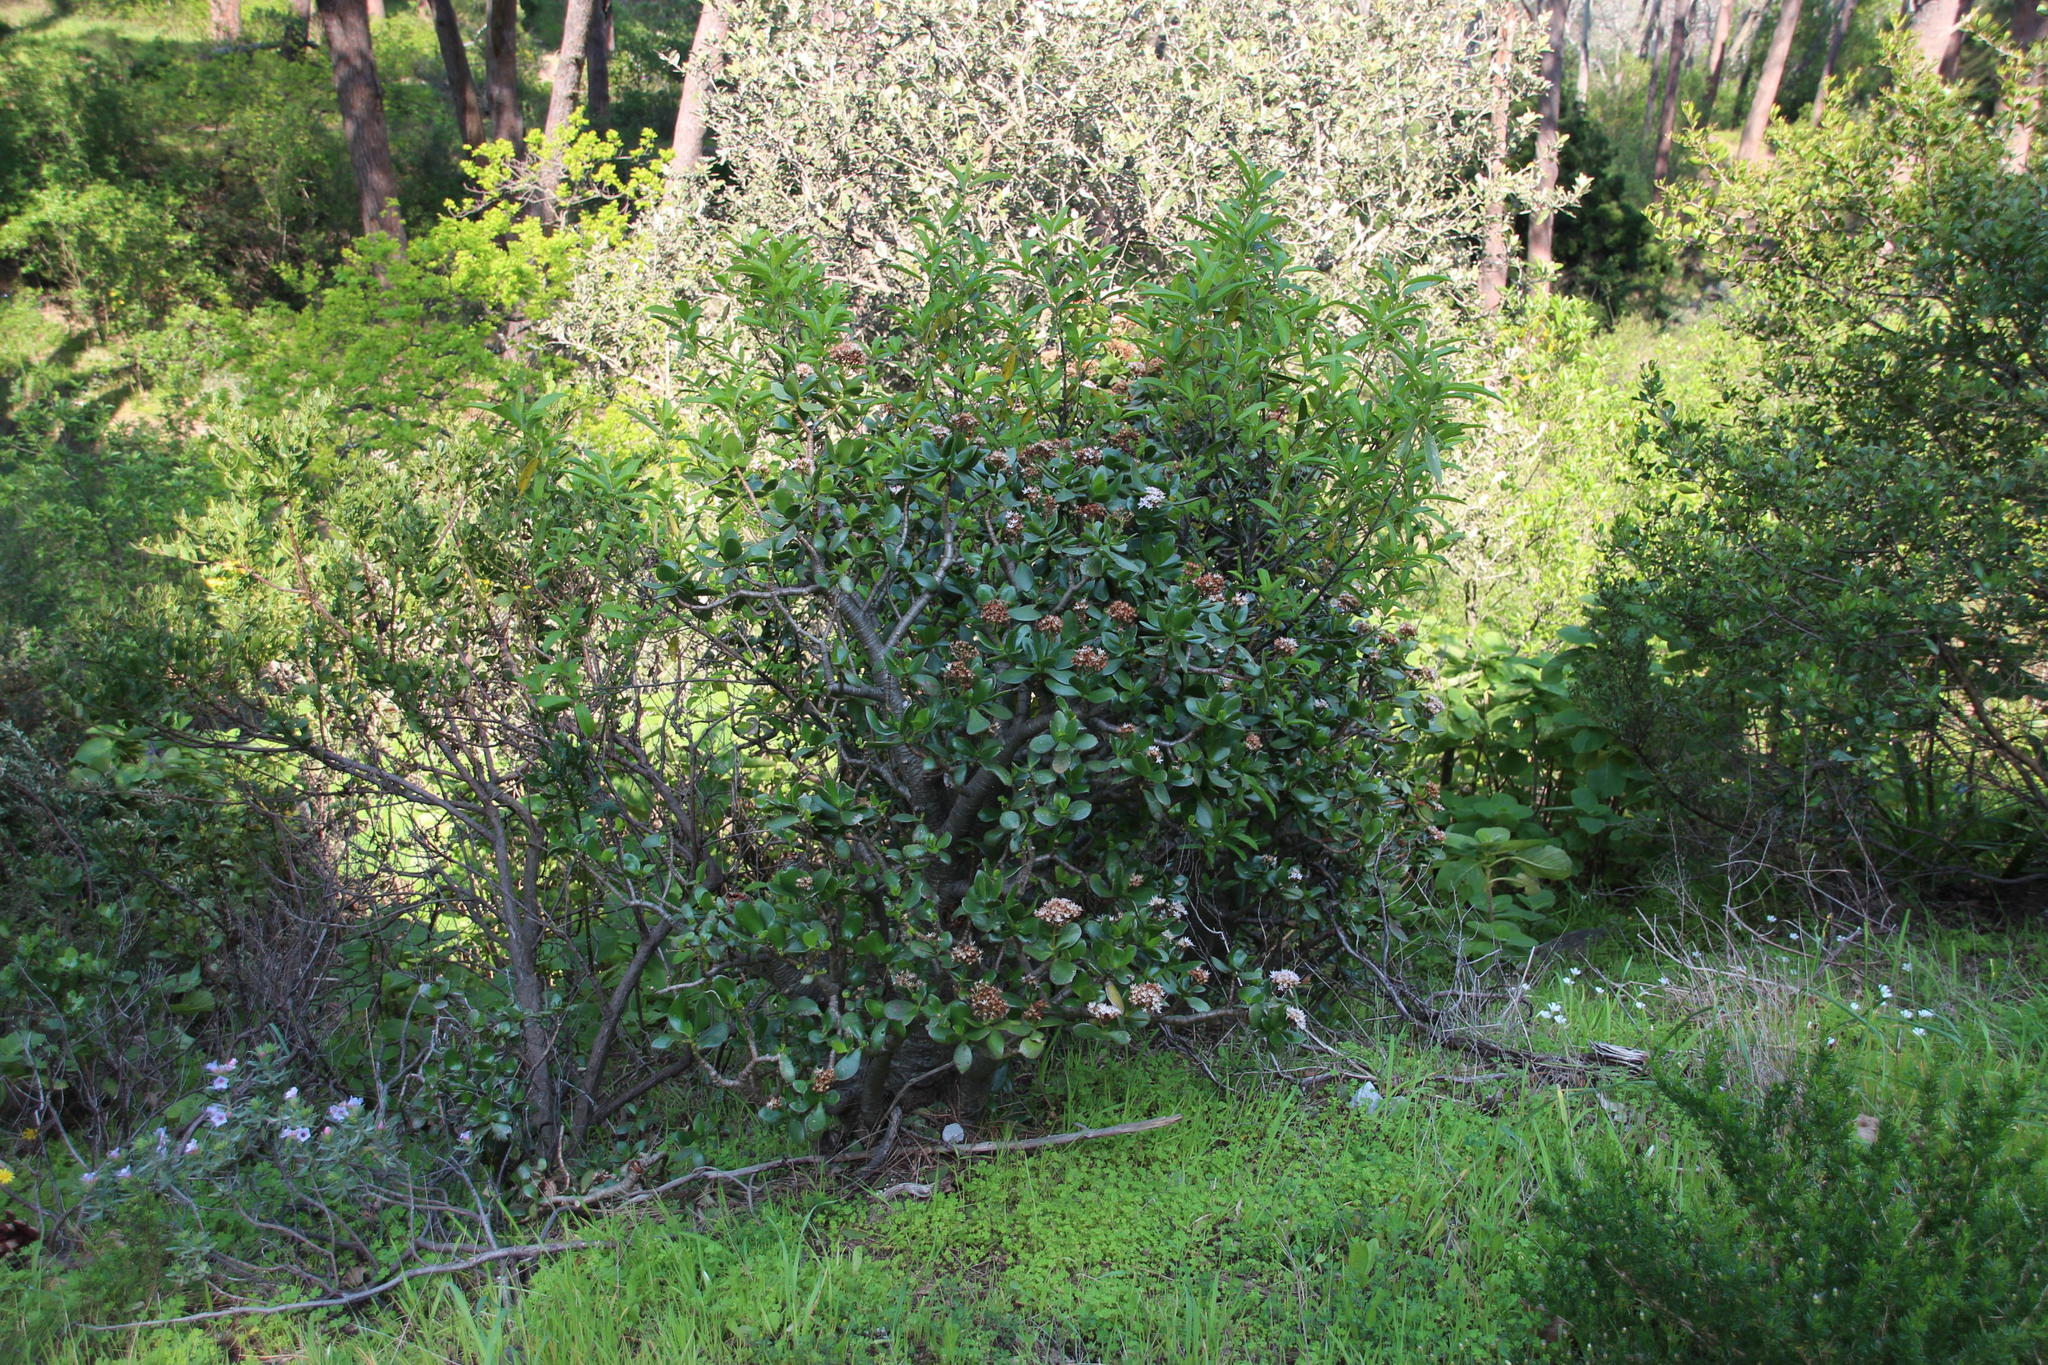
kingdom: Plantae
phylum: Tracheophyta
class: Magnoliopsida
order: Saxifragales
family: Crassulaceae
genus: Crassula
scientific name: Crassula ovata
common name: Jade plant
